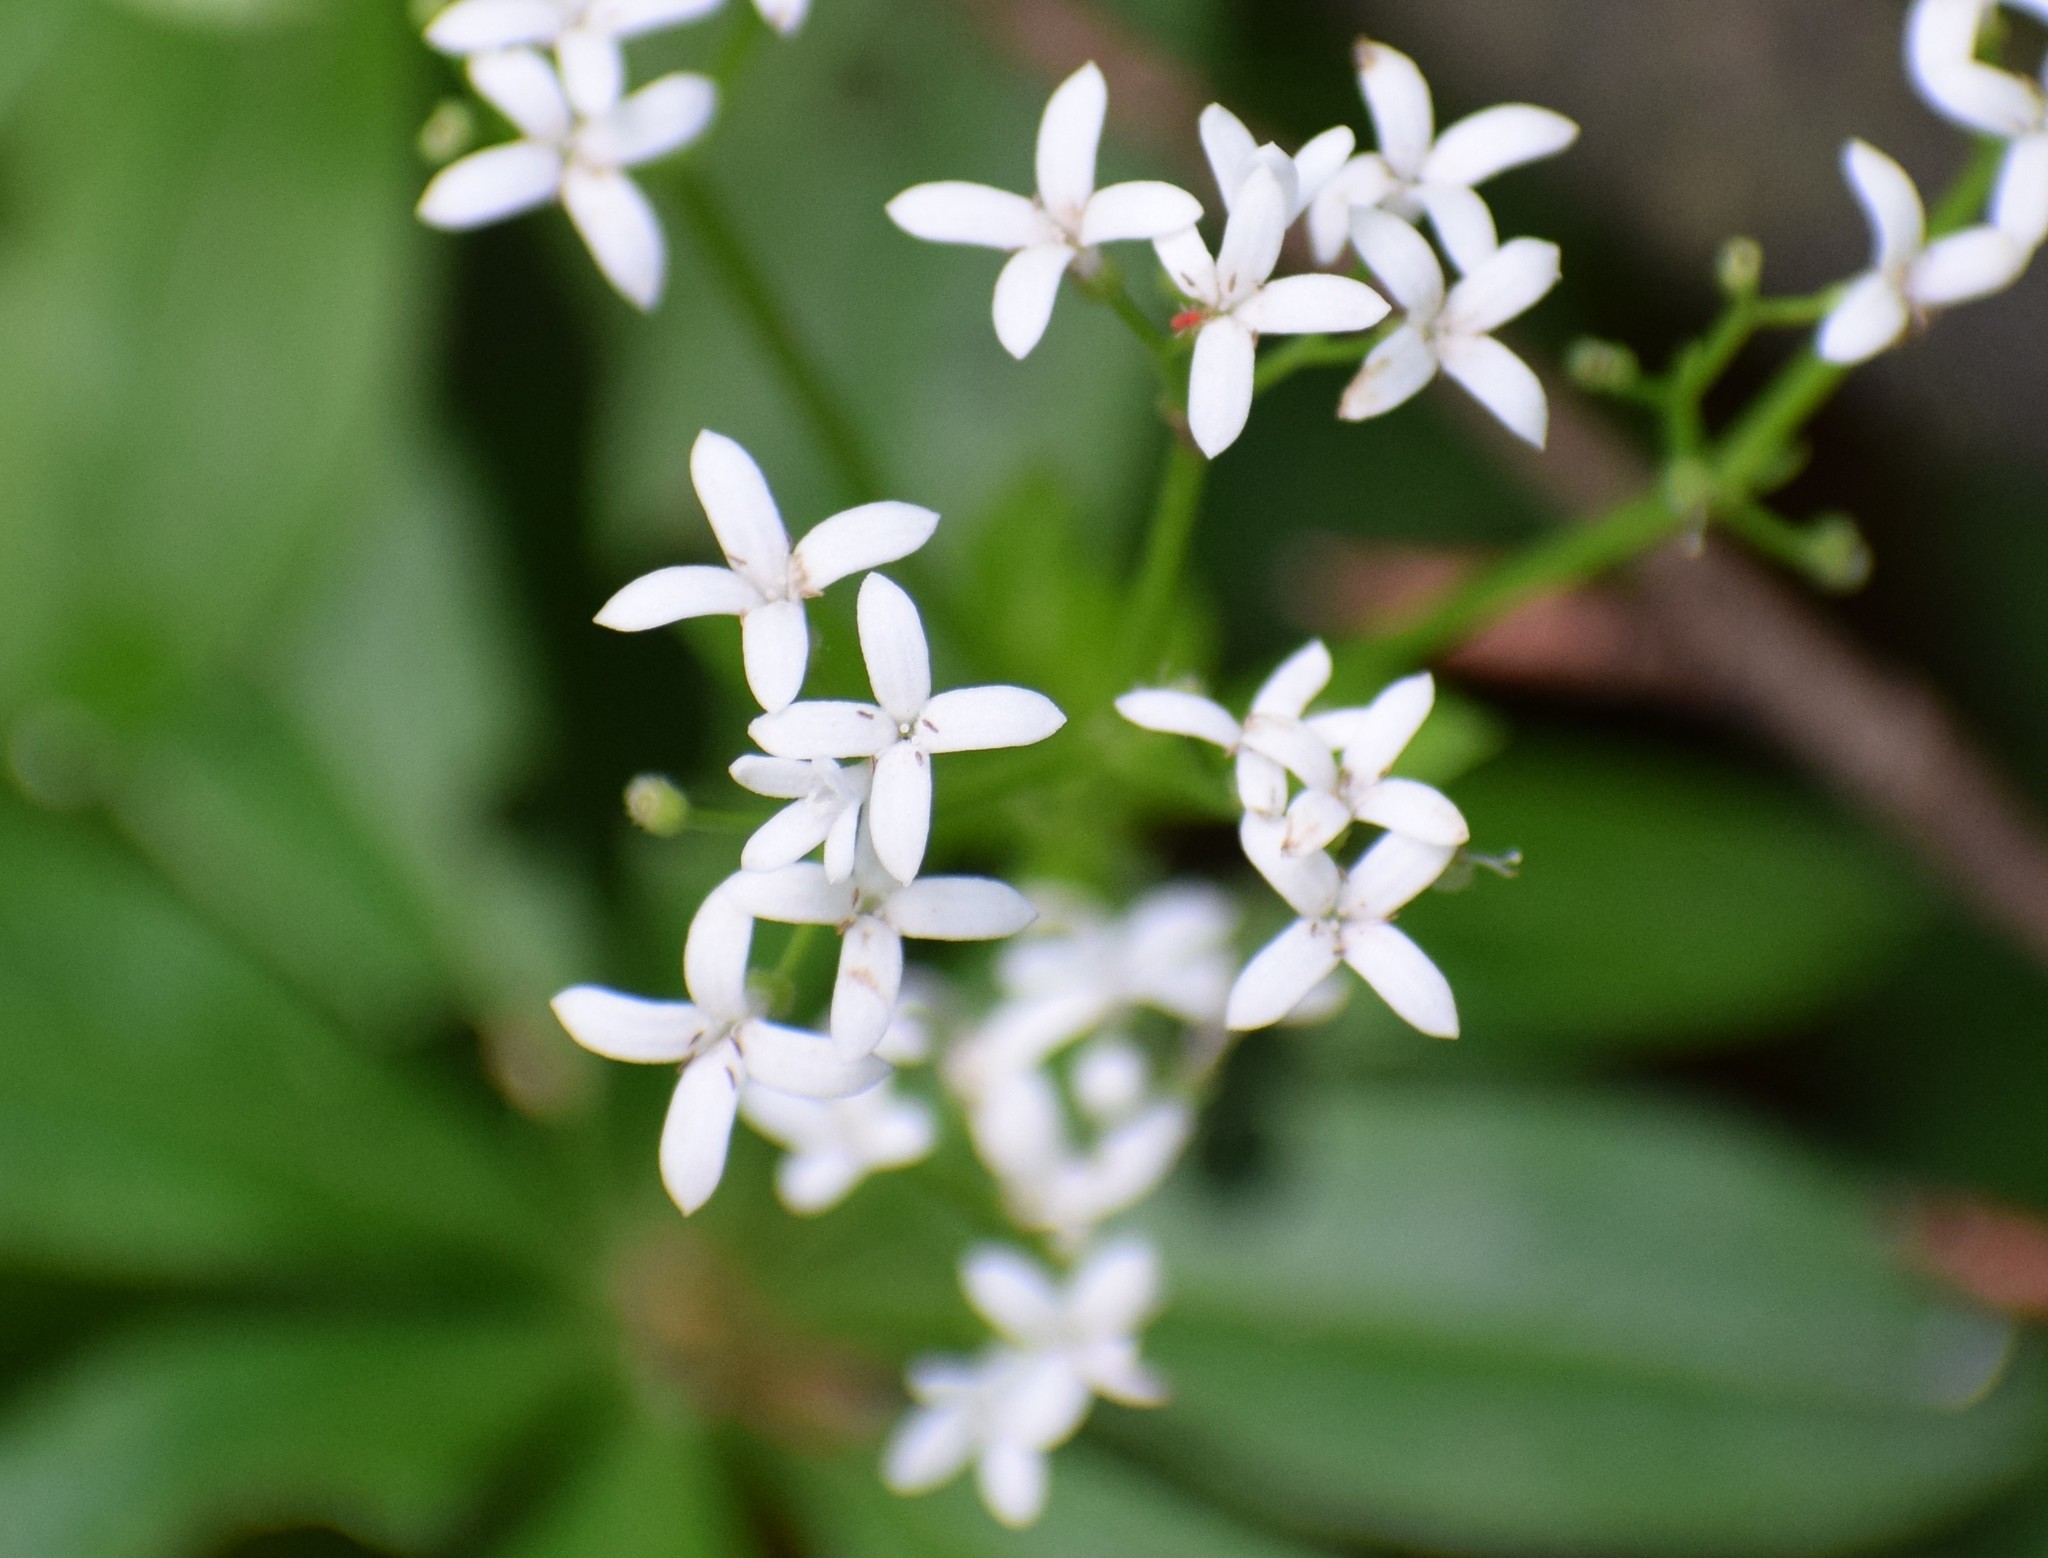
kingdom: Plantae
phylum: Tracheophyta
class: Magnoliopsida
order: Gentianales
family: Rubiaceae
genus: Galium
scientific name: Galium odoratum
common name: Sweet woodruff
